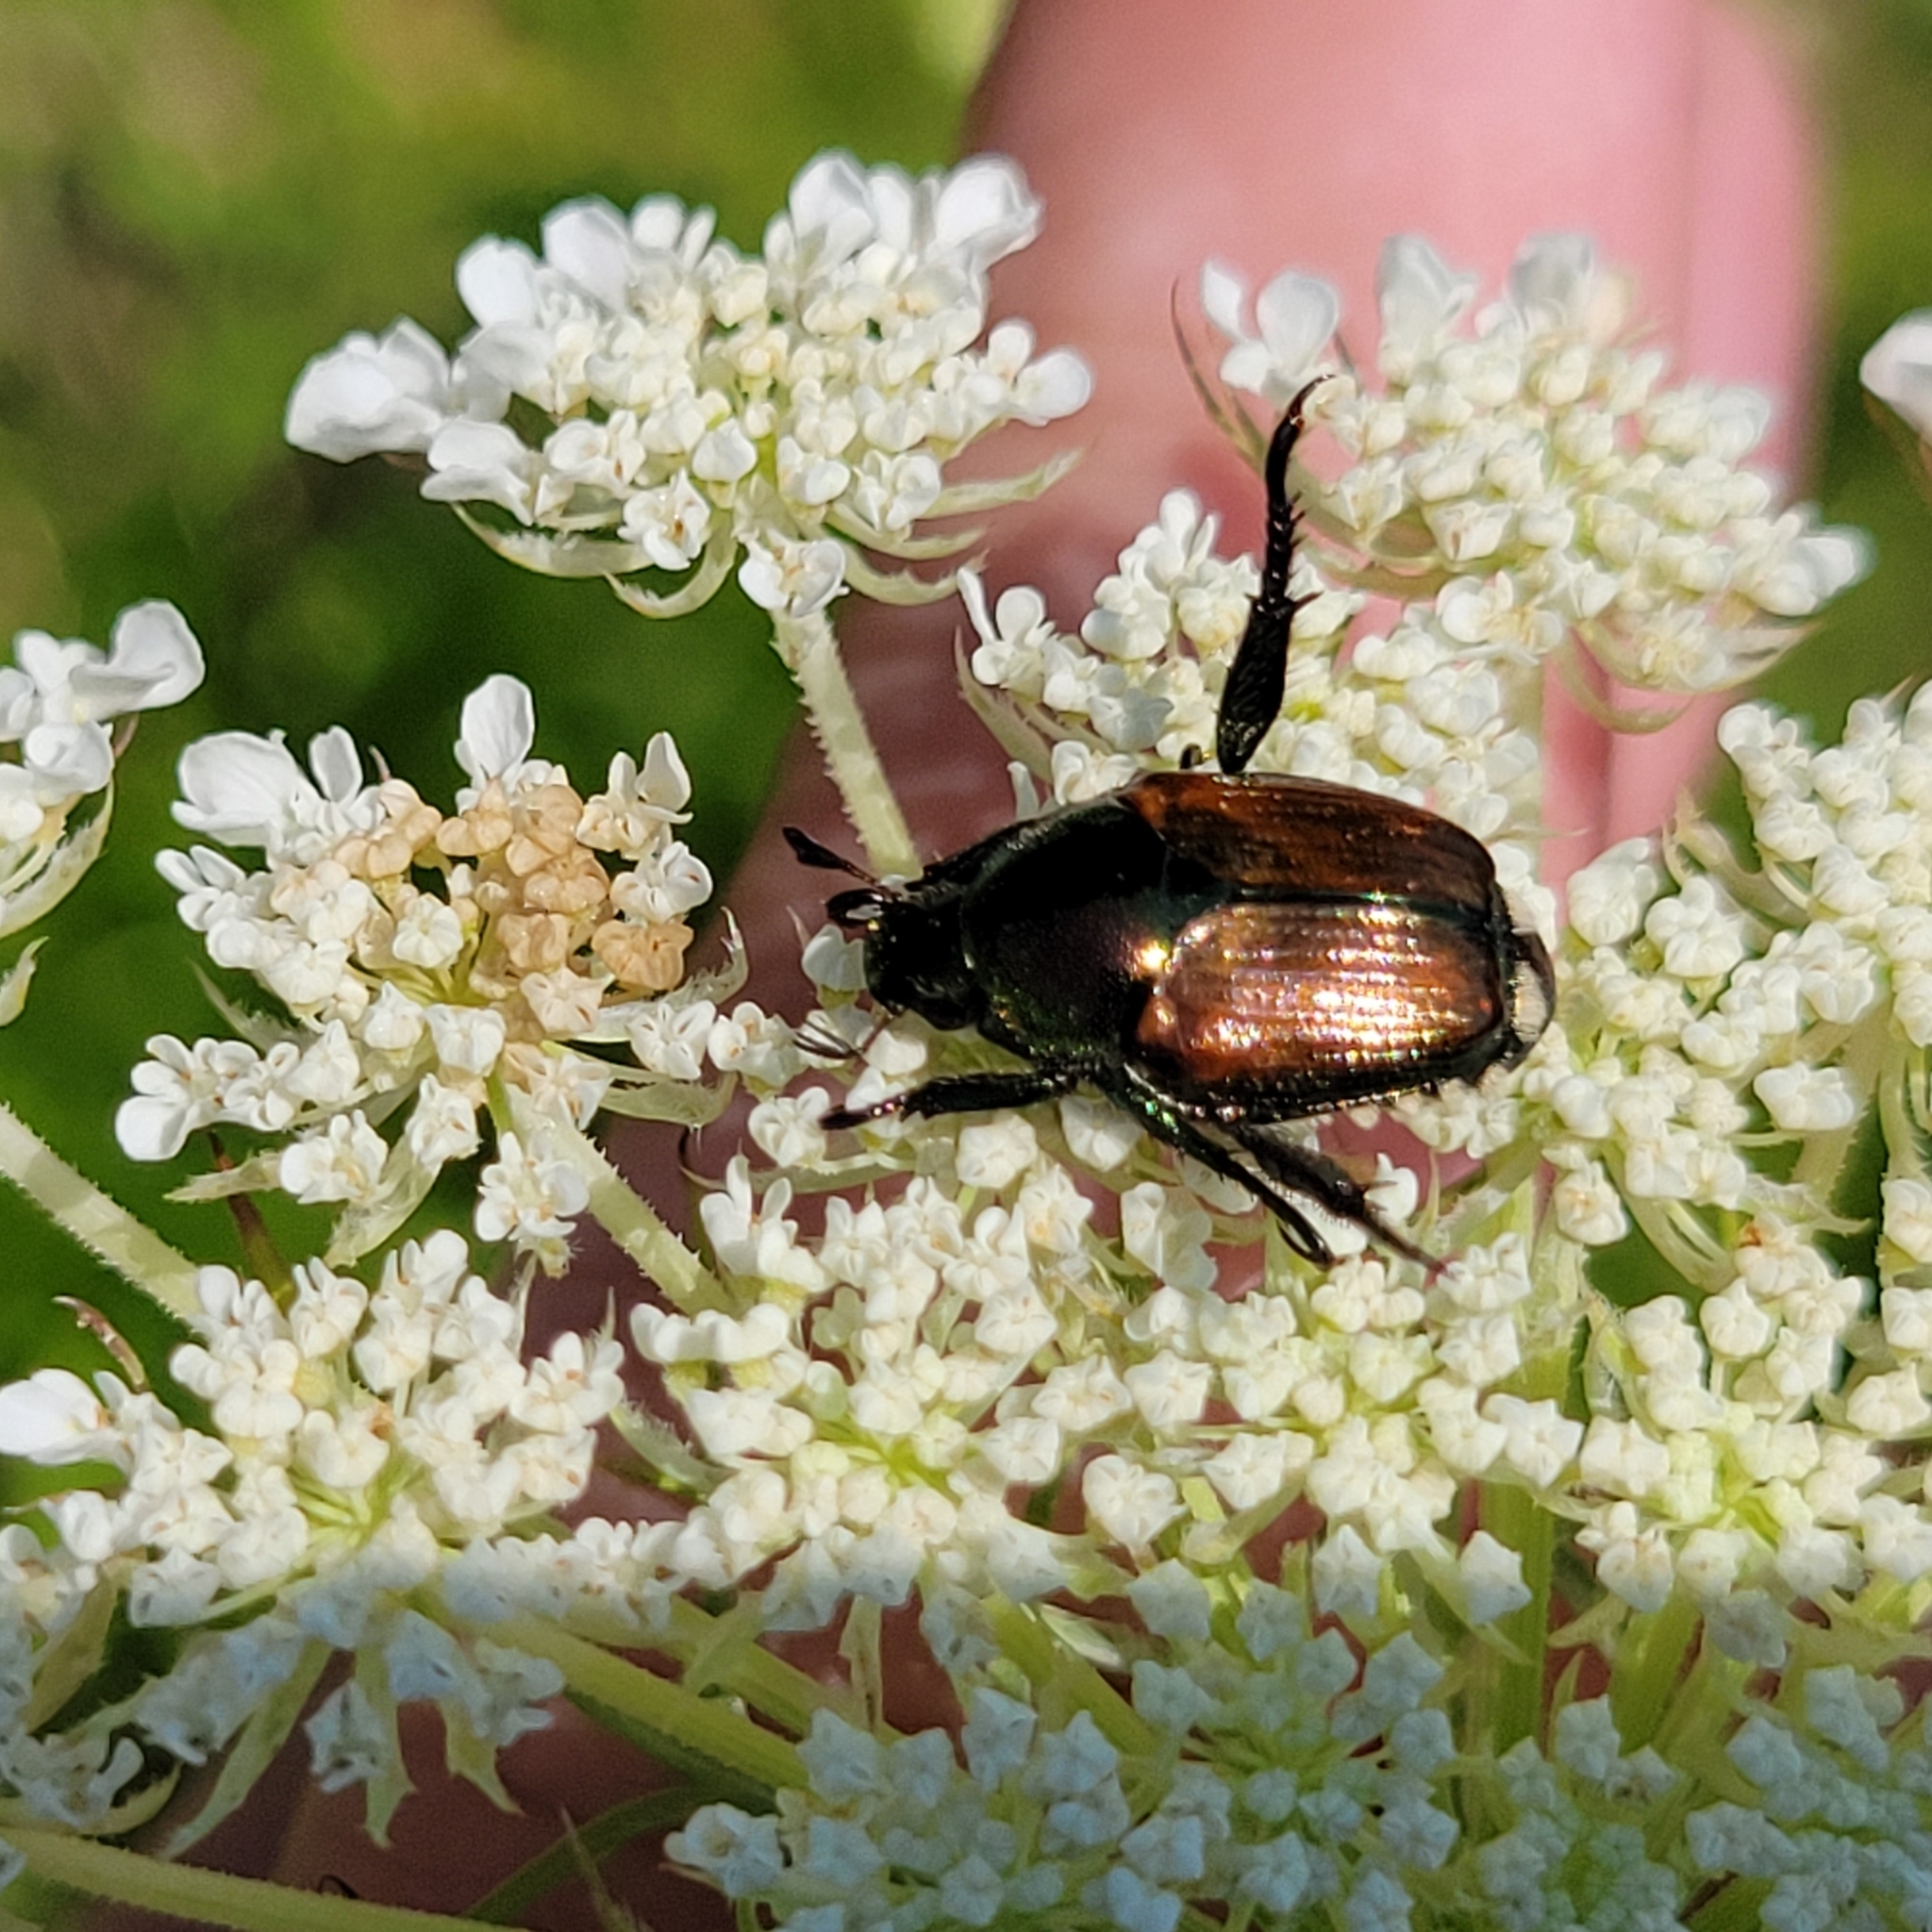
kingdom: Animalia
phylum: Arthropoda
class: Insecta
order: Coleoptera
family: Scarabaeidae
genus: Popillia
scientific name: Popillia japonica
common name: Japanese beetle
